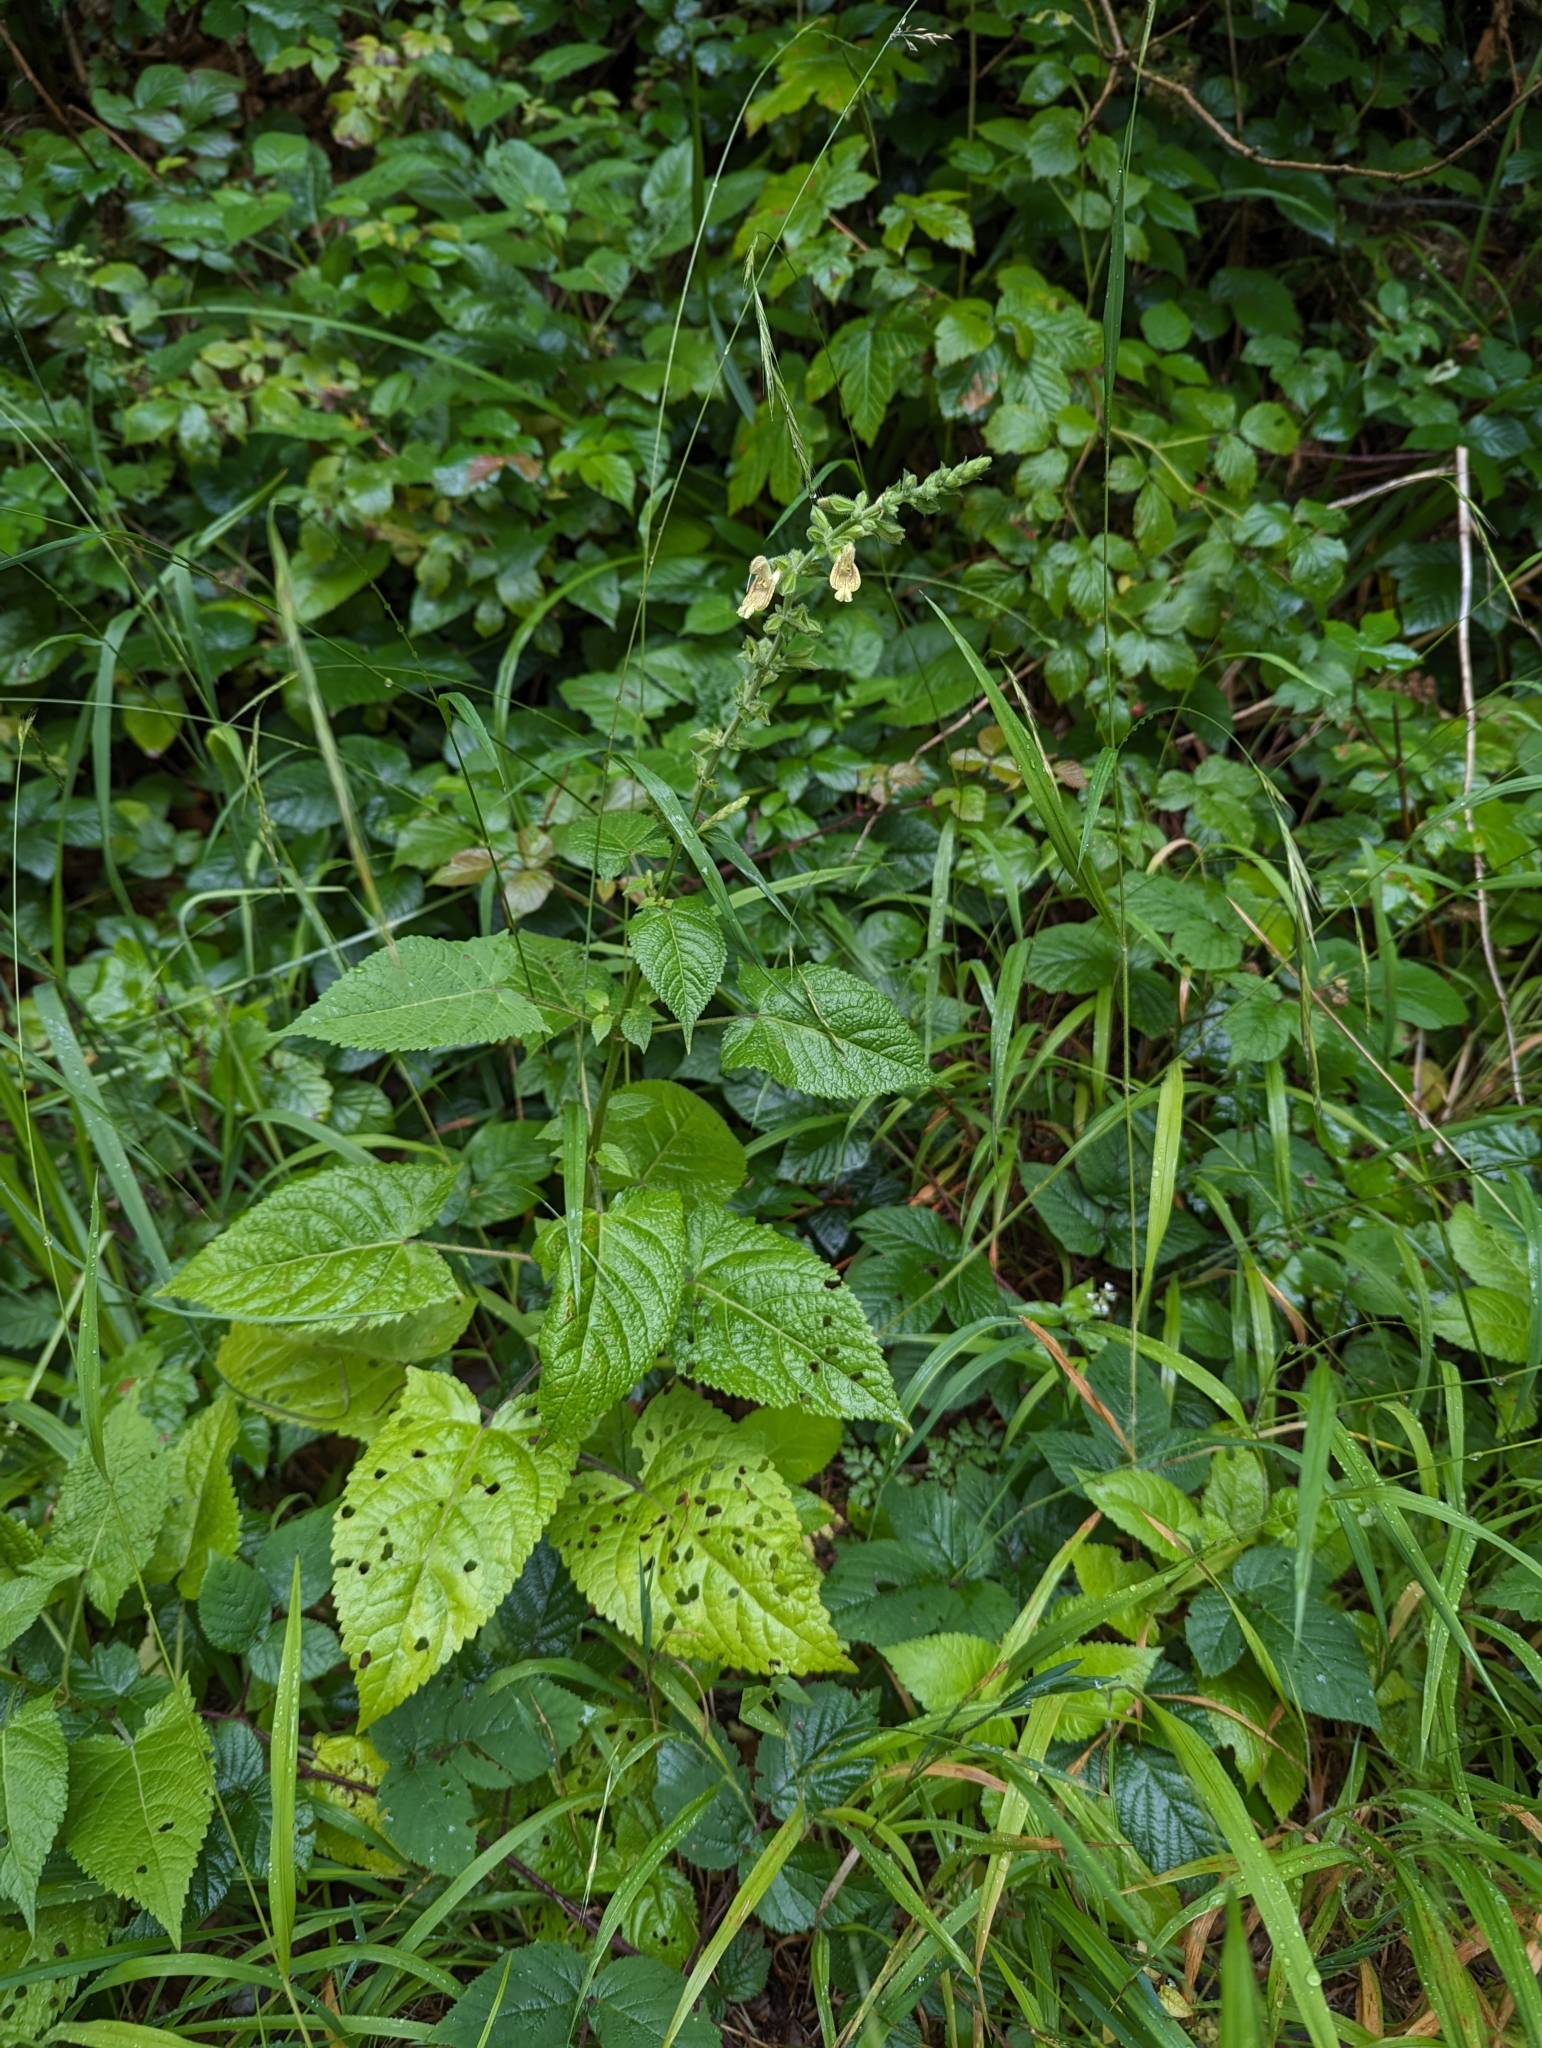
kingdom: Plantae
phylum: Tracheophyta
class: Magnoliopsida
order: Lamiales
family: Lamiaceae
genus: Salvia
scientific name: Salvia glutinosa
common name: Sticky clary
